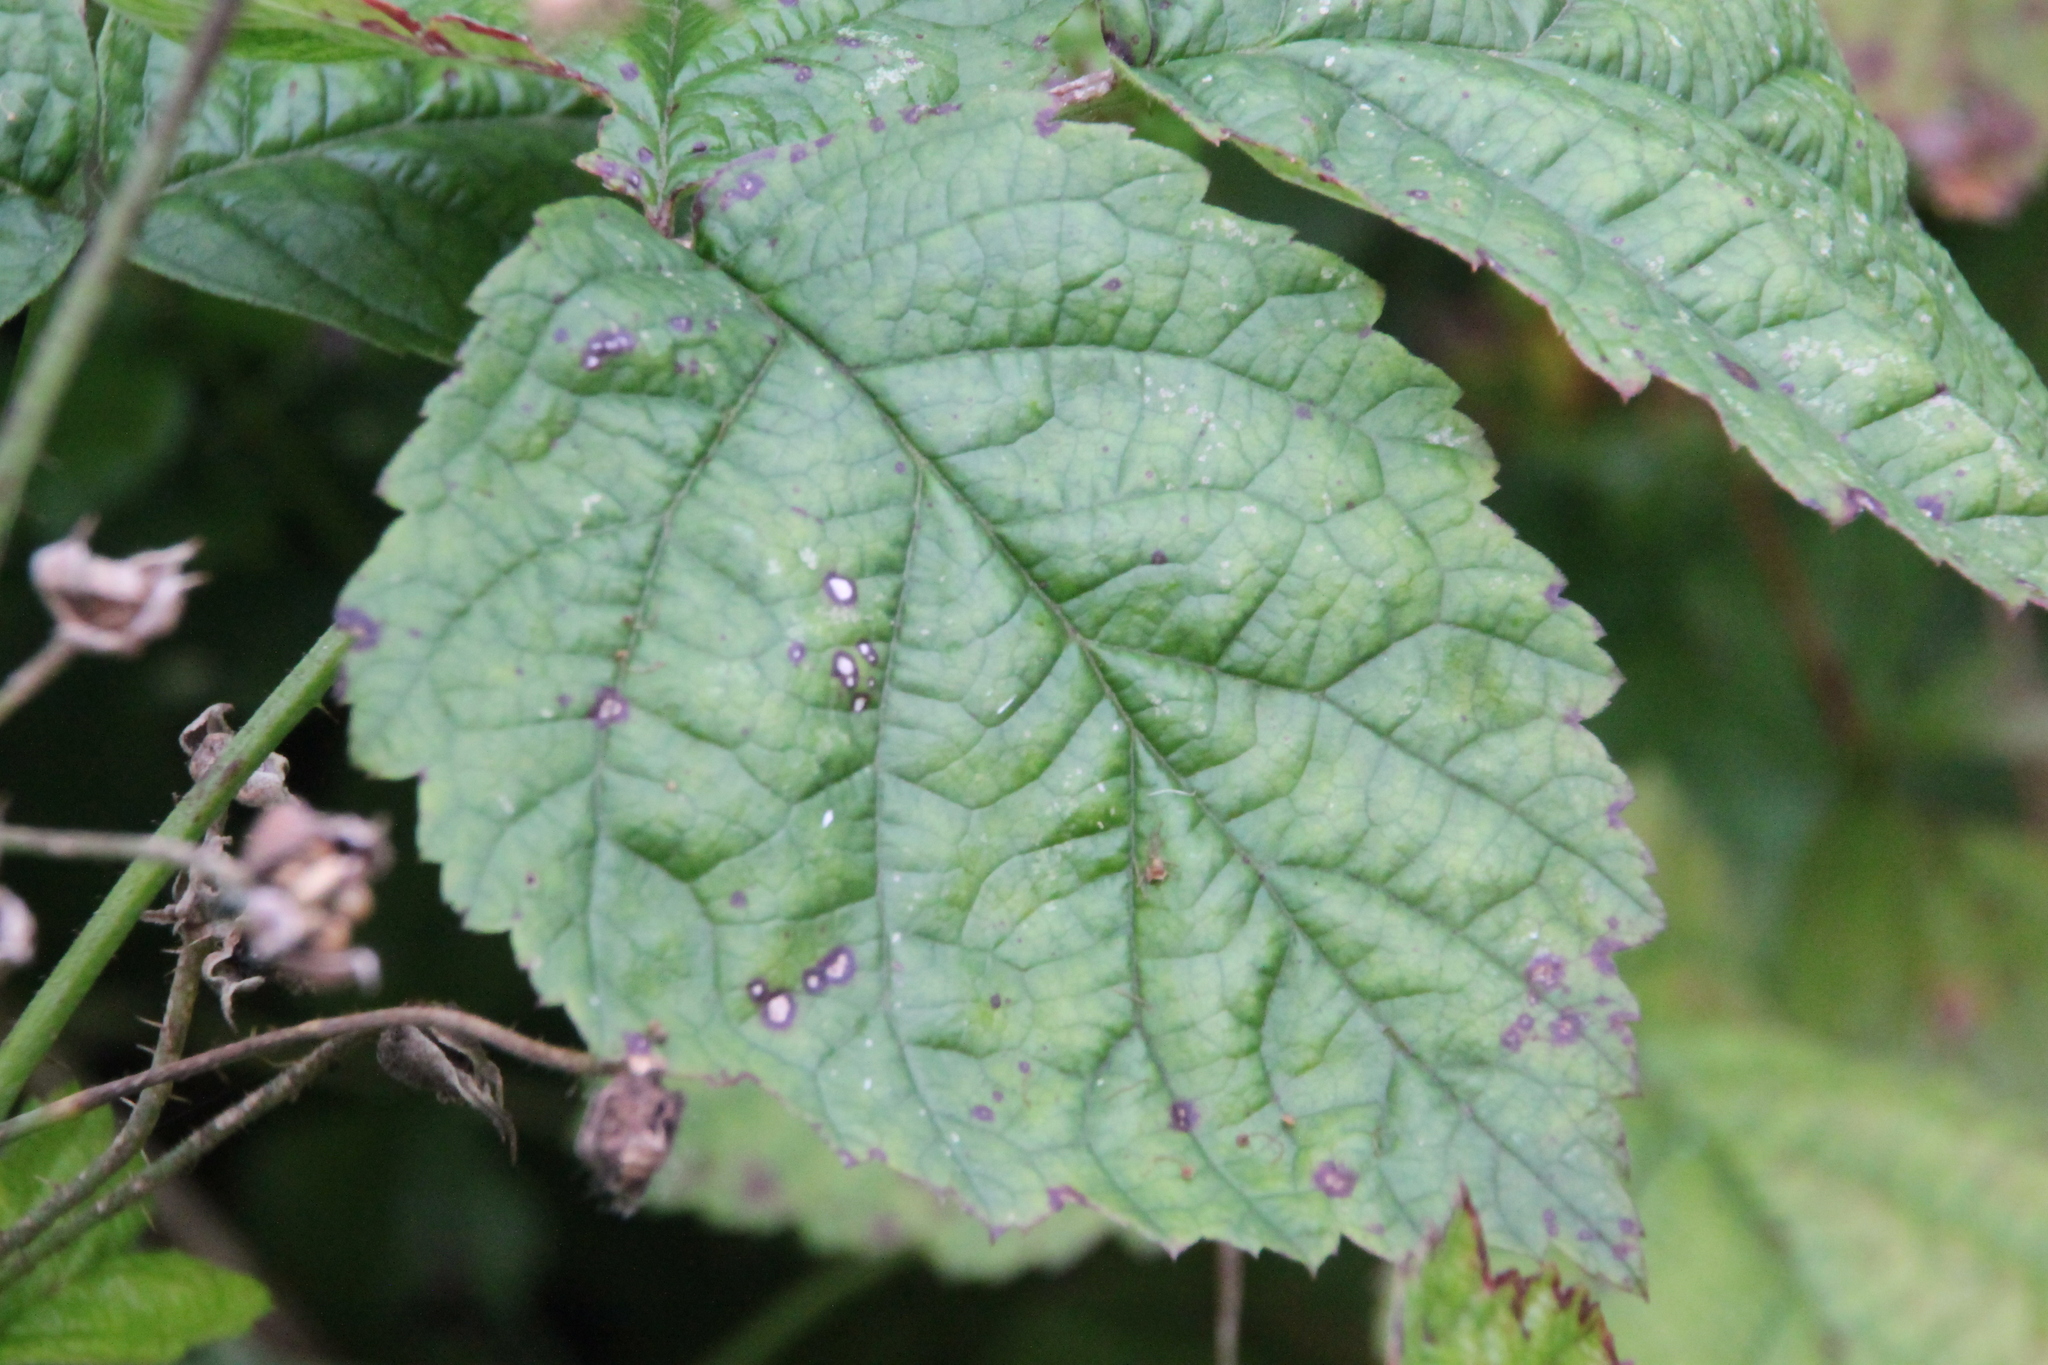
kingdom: Plantae
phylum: Tracheophyta
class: Magnoliopsida
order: Rosales
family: Rosaceae
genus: Rubus
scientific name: Rubus caesius
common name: Dewberry
